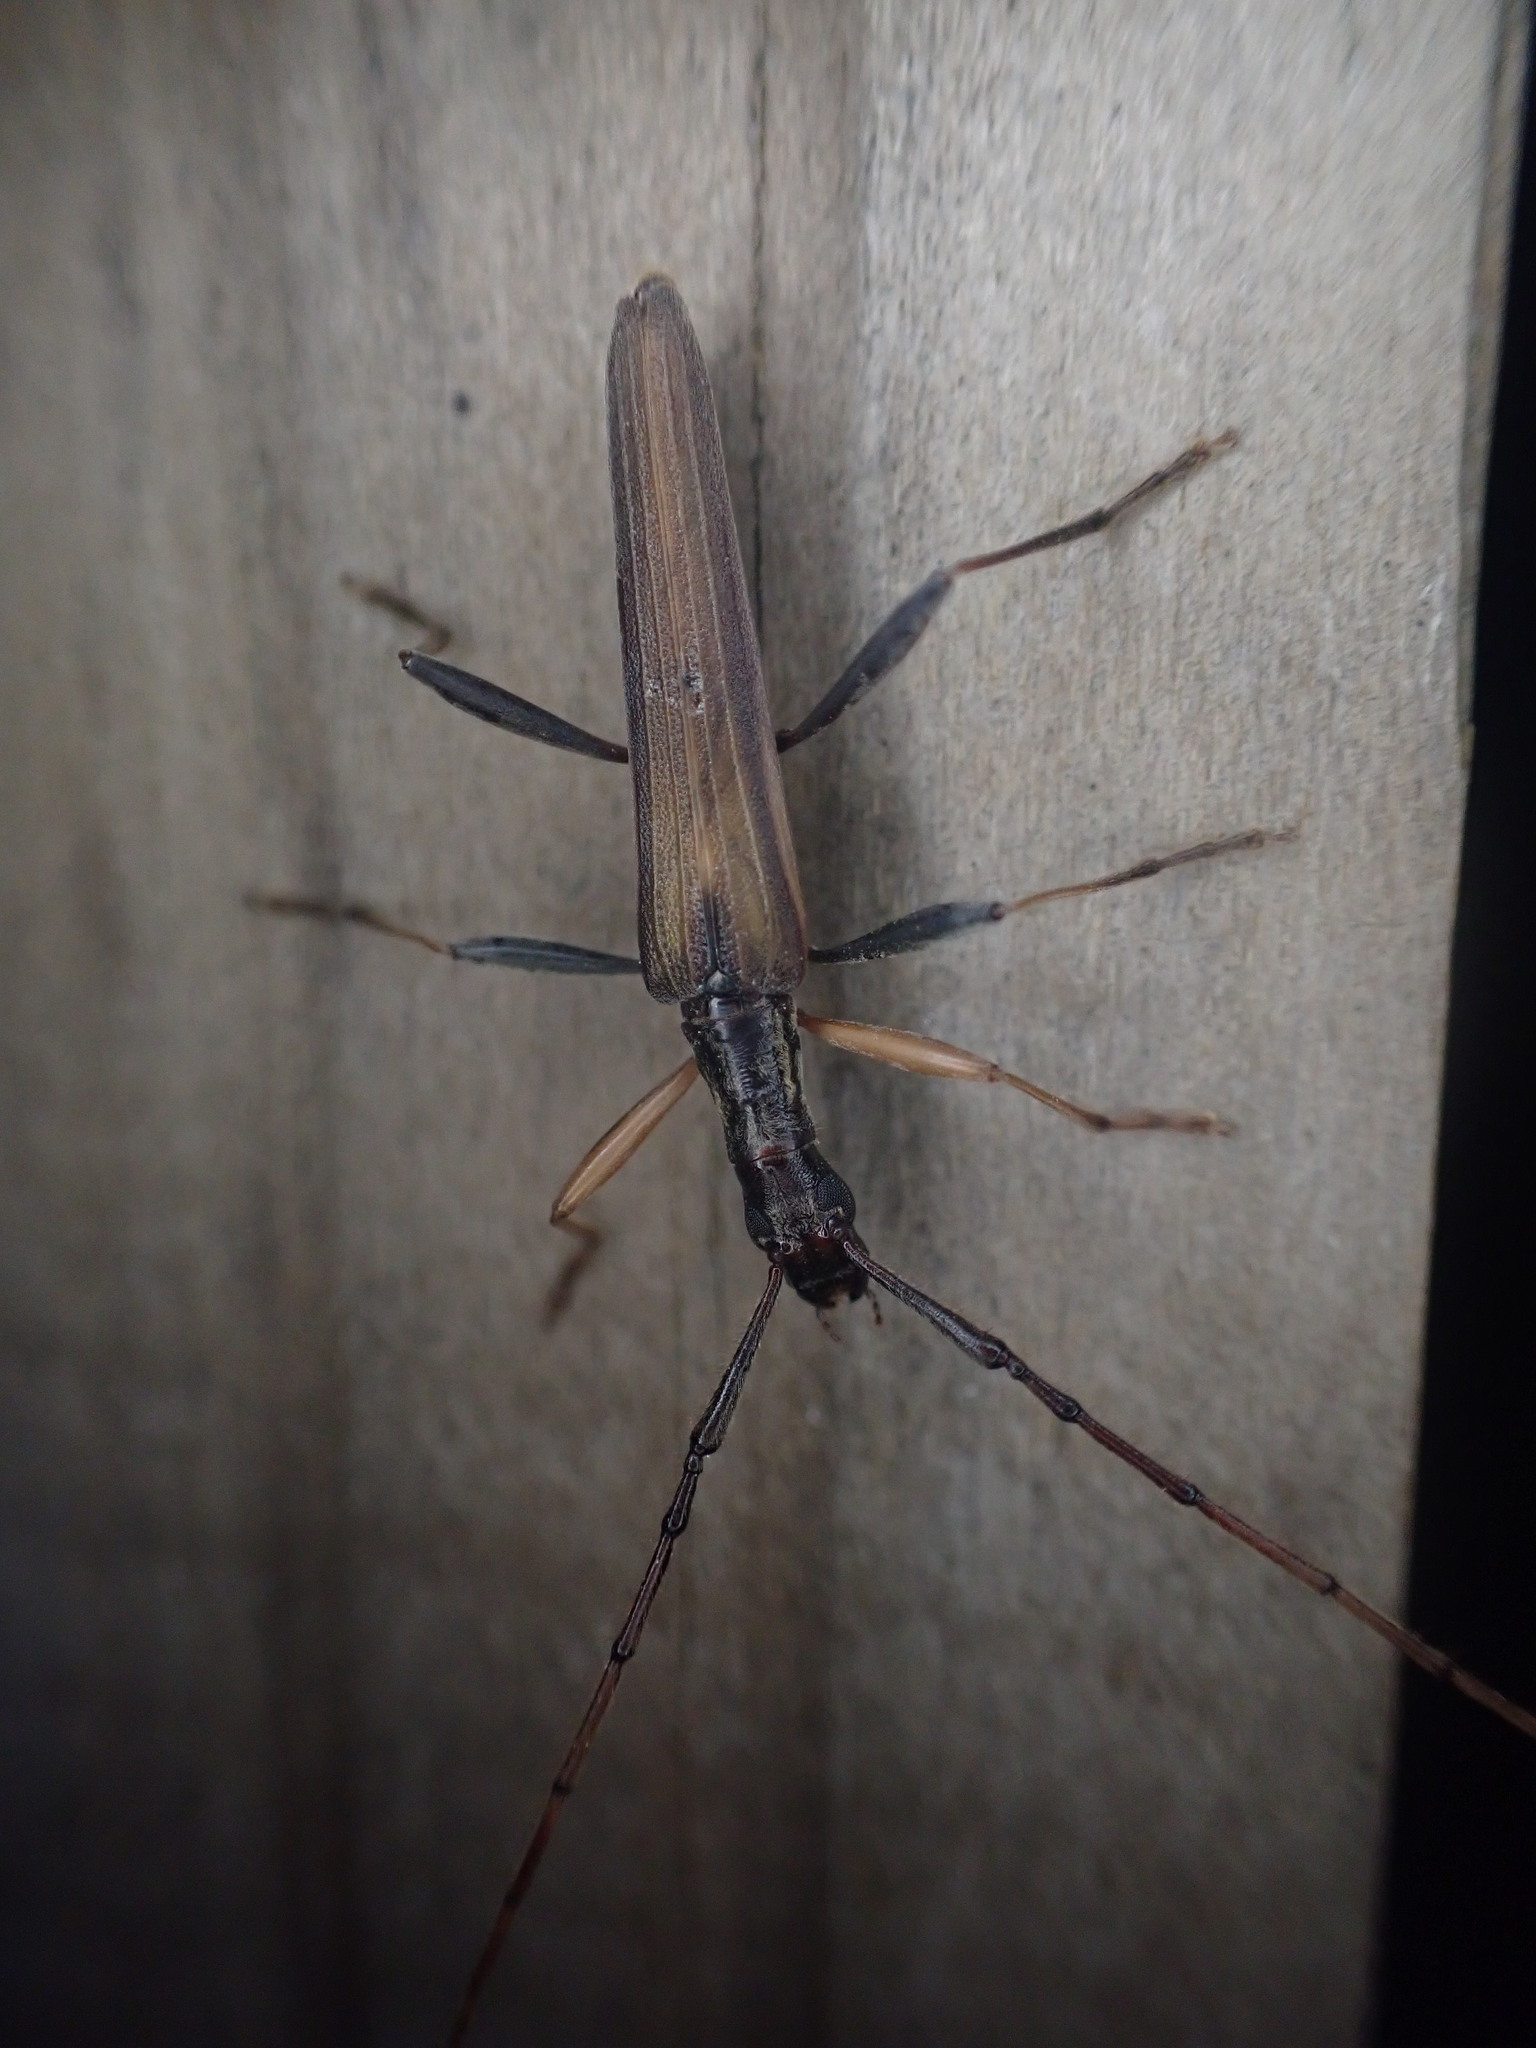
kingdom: Animalia
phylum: Arthropoda
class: Insecta
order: Coleoptera
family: Cerambycidae
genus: Stenopotes
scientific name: Stenopotes pallidus
